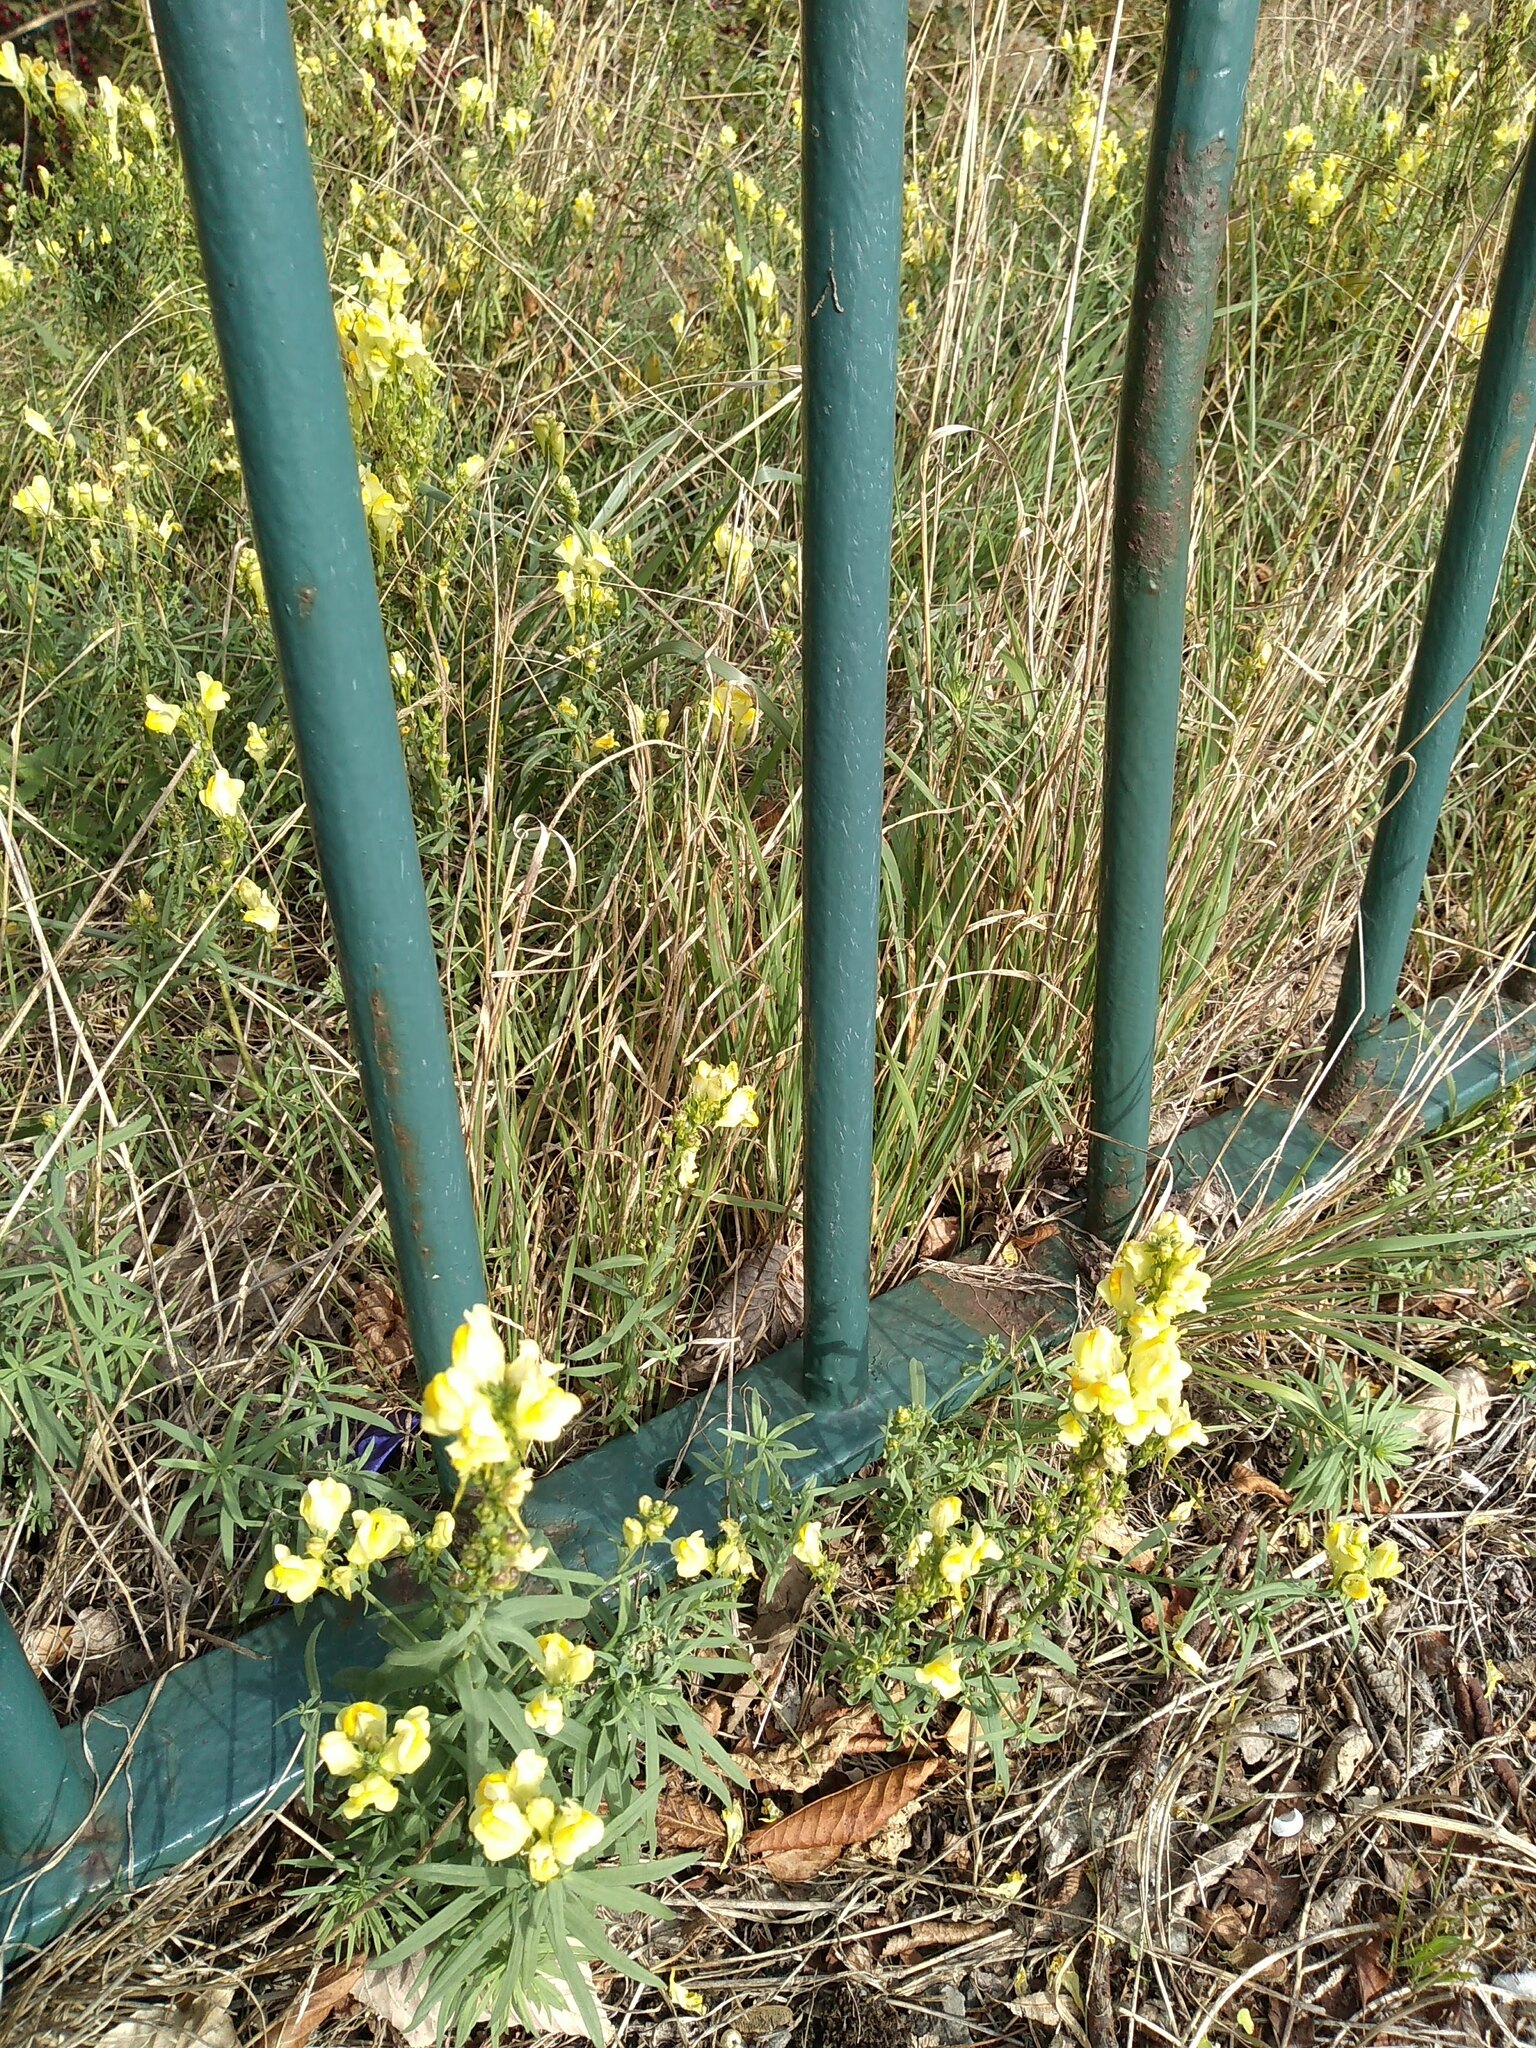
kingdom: Plantae
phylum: Tracheophyta
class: Magnoliopsida
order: Lamiales
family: Plantaginaceae
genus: Linaria
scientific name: Linaria vulgaris
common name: Butter and eggs
